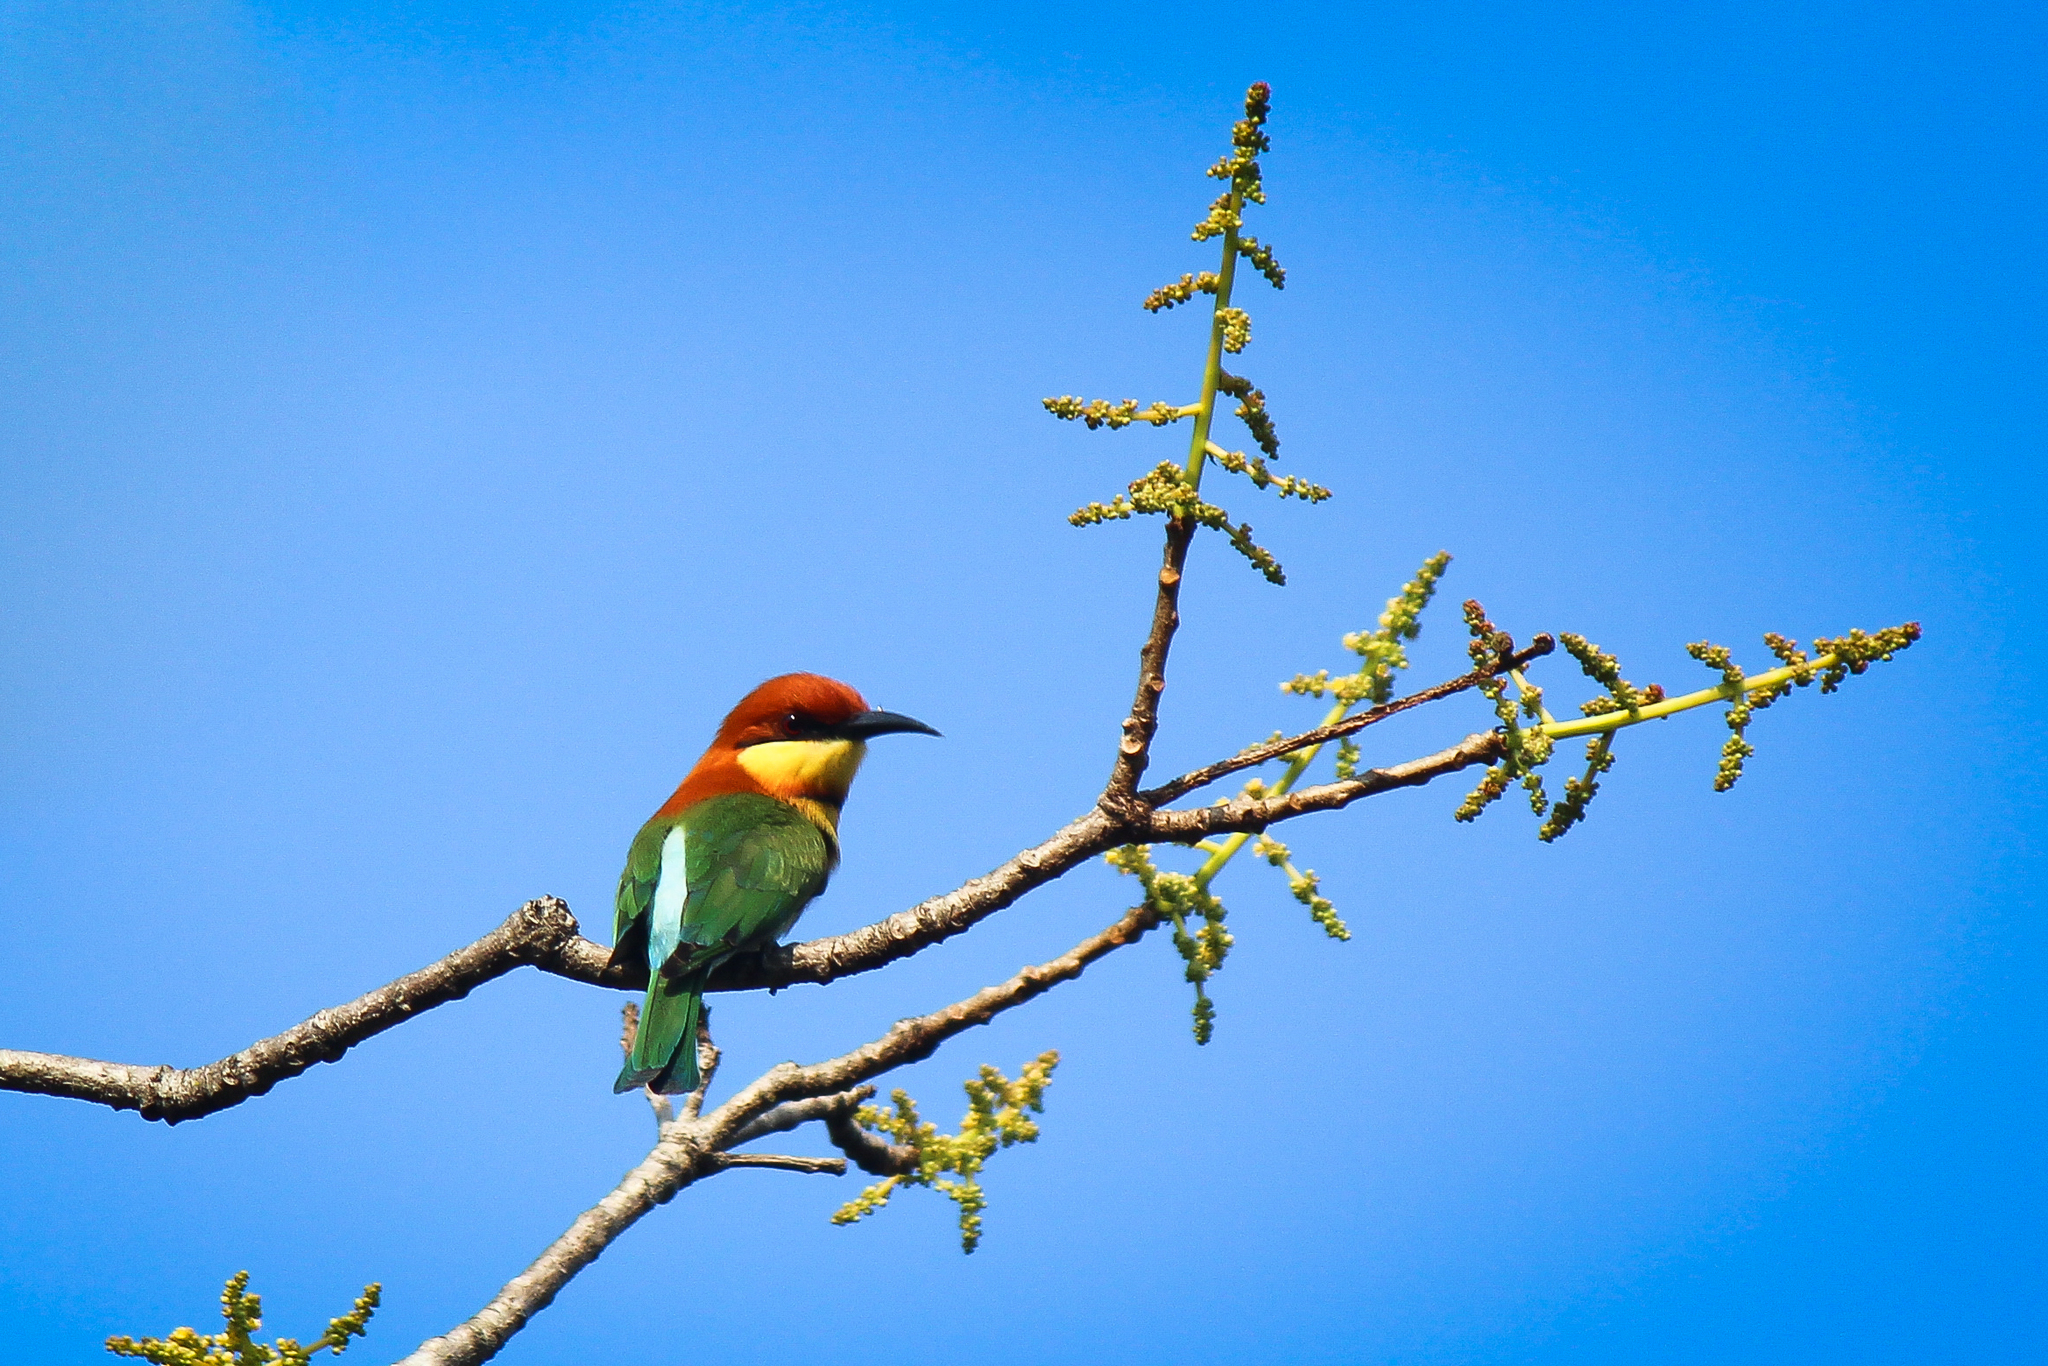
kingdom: Animalia
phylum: Chordata
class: Aves
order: Coraciiformes
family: Meropidae
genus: Merops
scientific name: Merops leschenaulti
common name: Chestnut-headed bee-eater
